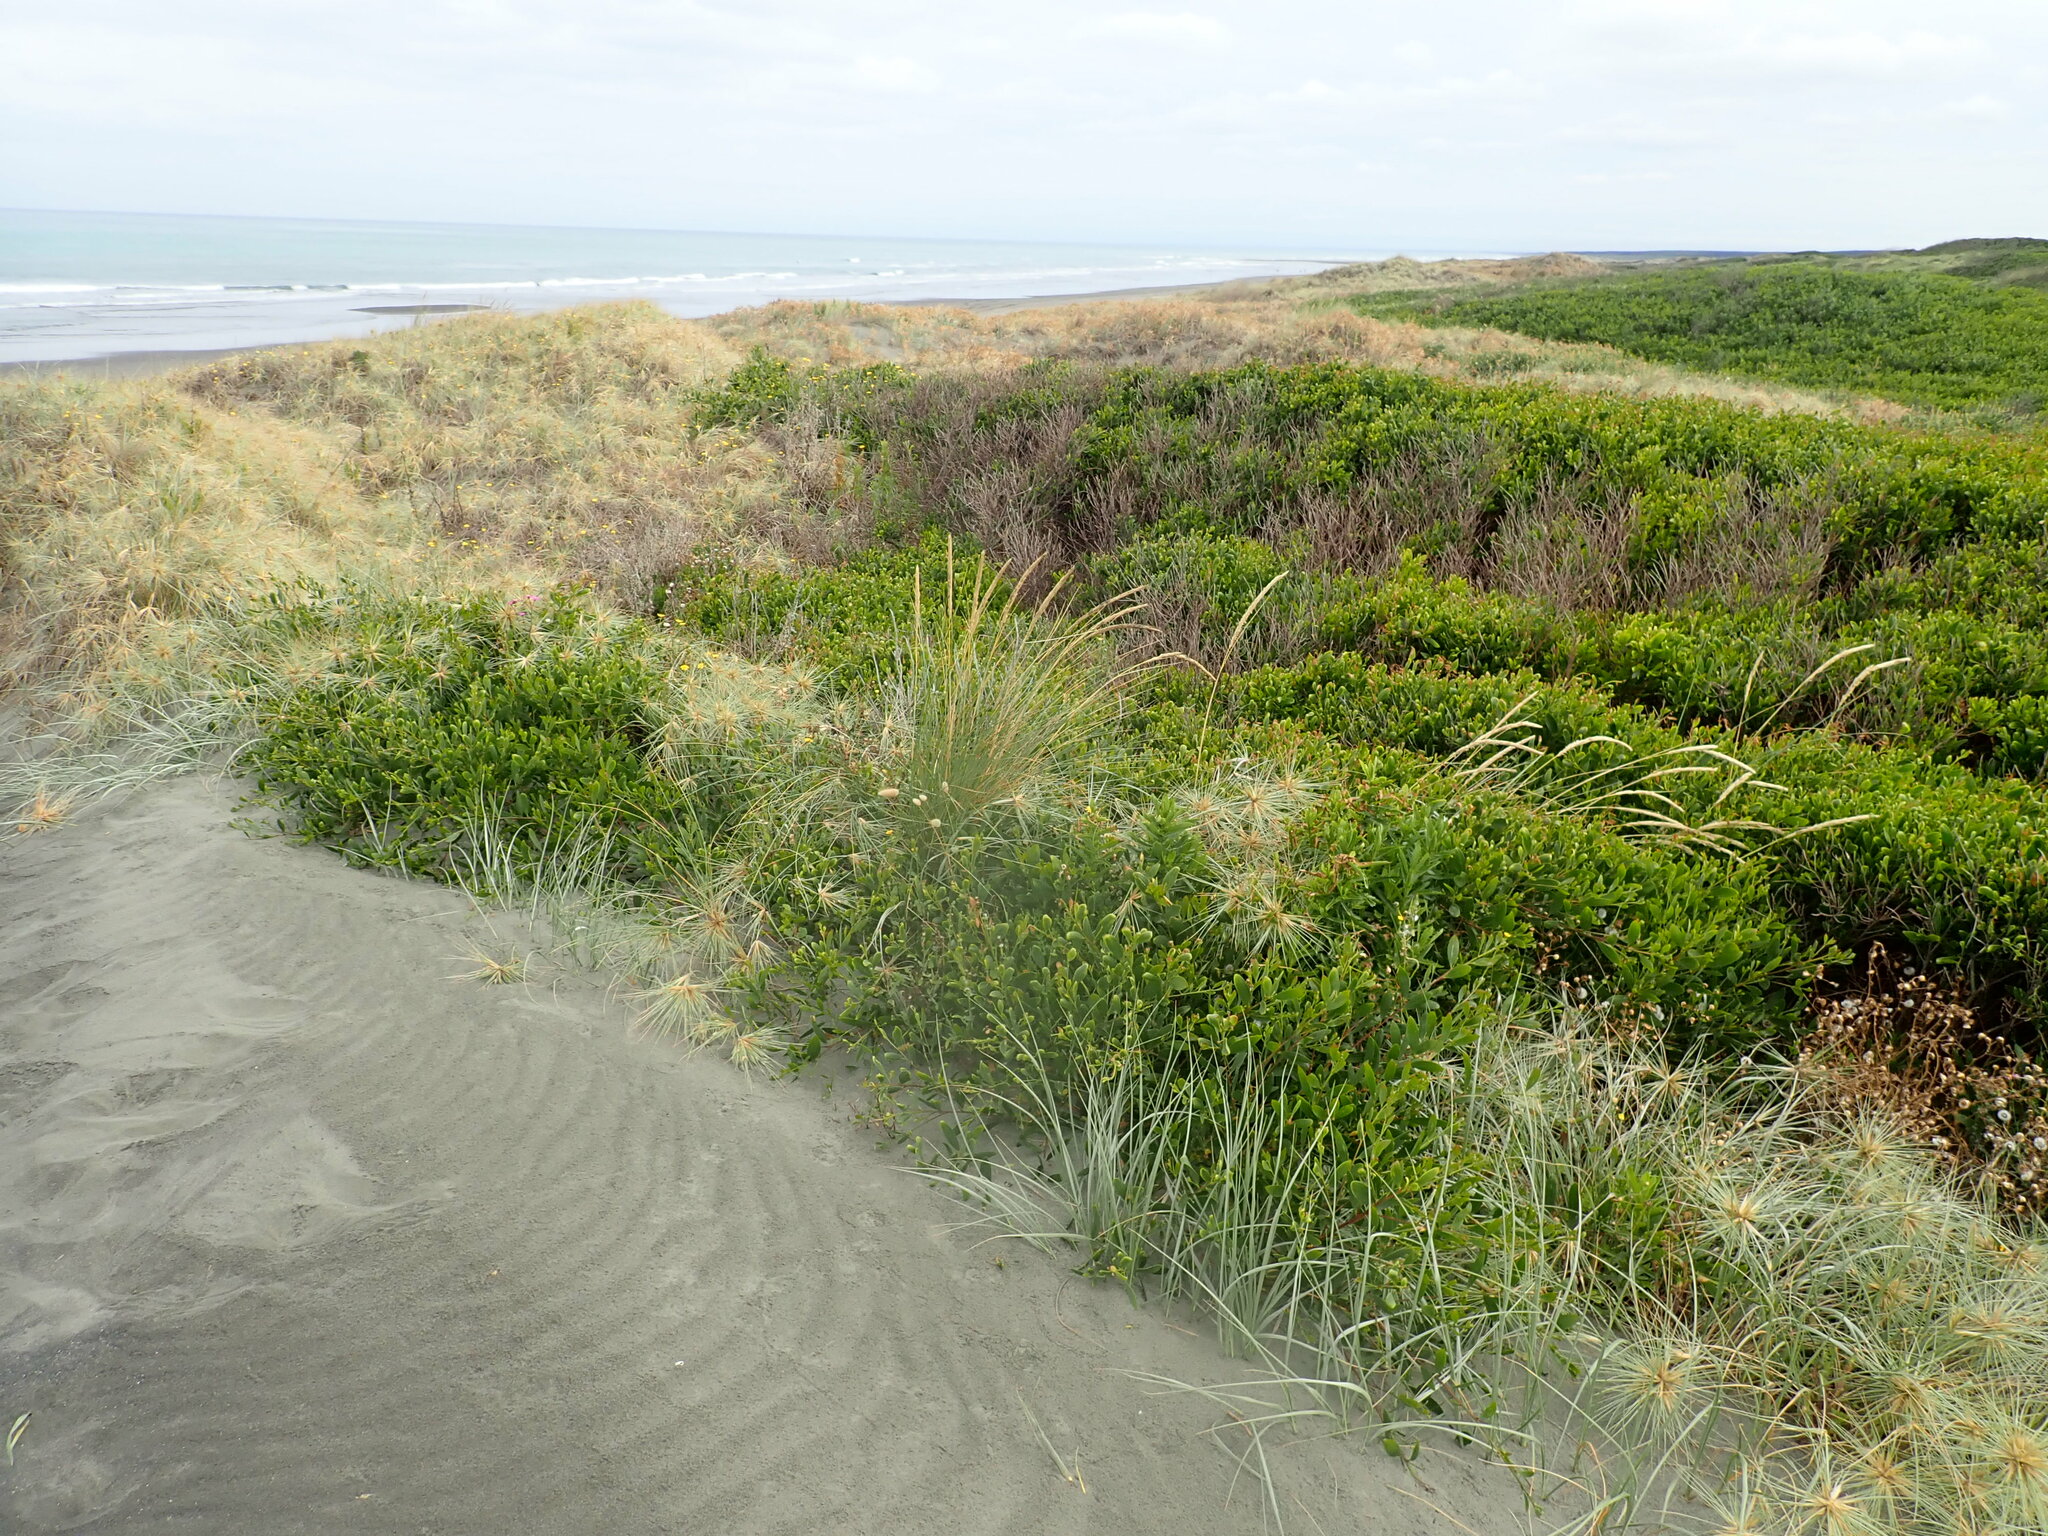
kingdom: Plantae
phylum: Tracheophyta
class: Magnoliopsida
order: Fabales
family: Fabaceae
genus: Acacia
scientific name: Acacia longifolia
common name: Sydney golden wattle
